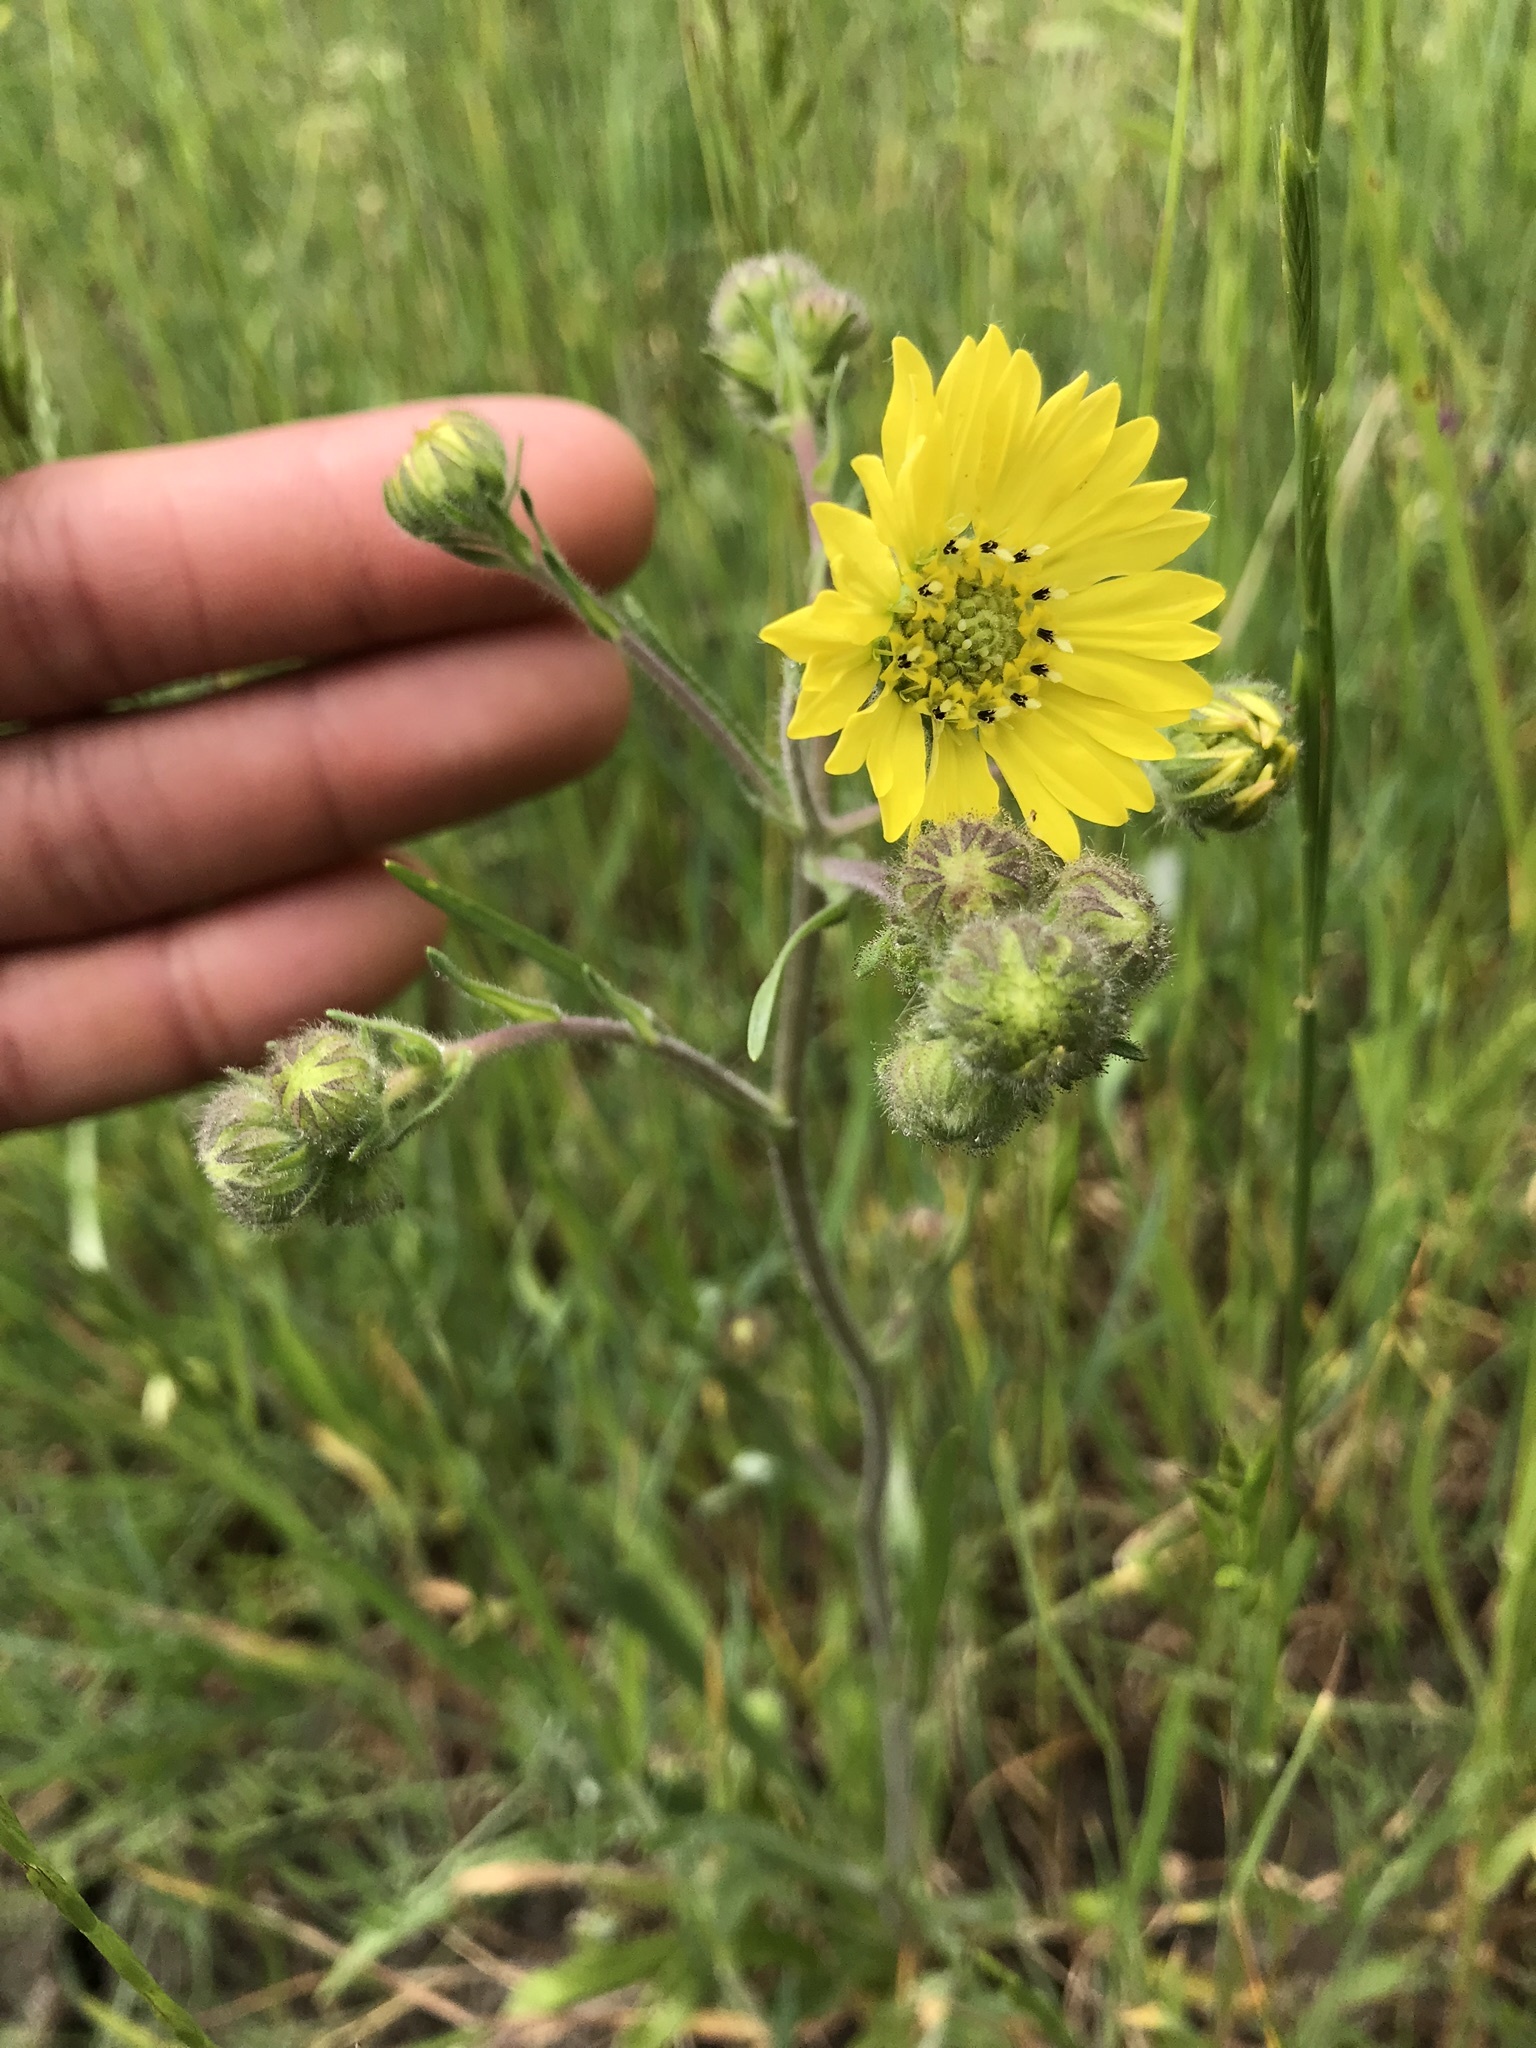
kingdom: Plantae
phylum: Tracheophyta
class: Magnoliopsida
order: Asterales
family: Asteraceae
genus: Madia
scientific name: Madia elegans
